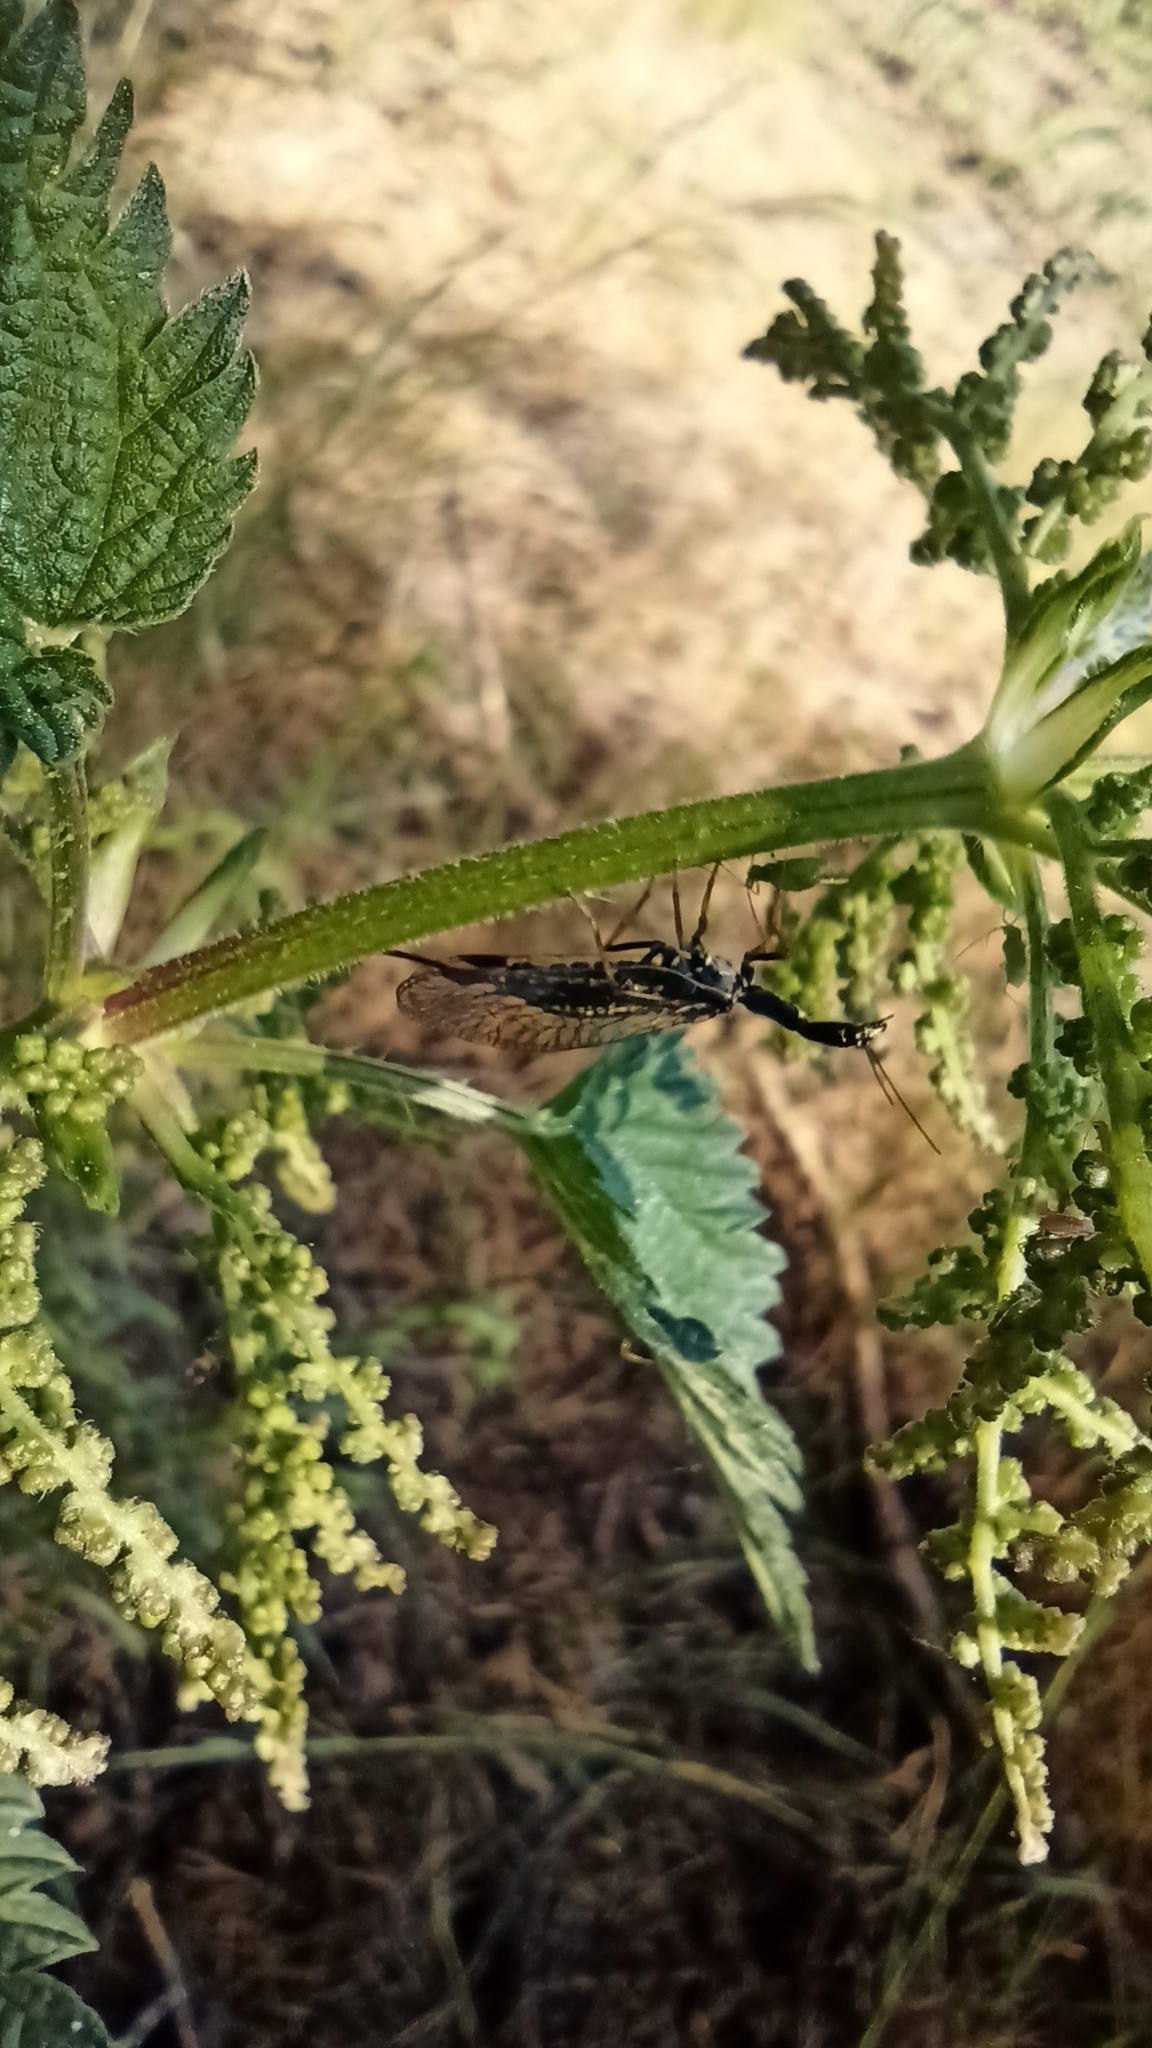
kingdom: Animalia
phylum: Arthropoda
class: Insecta
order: Raphidioptera
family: Raphidiidae
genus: Phaeostigma
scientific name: Phaeostigma notatum
